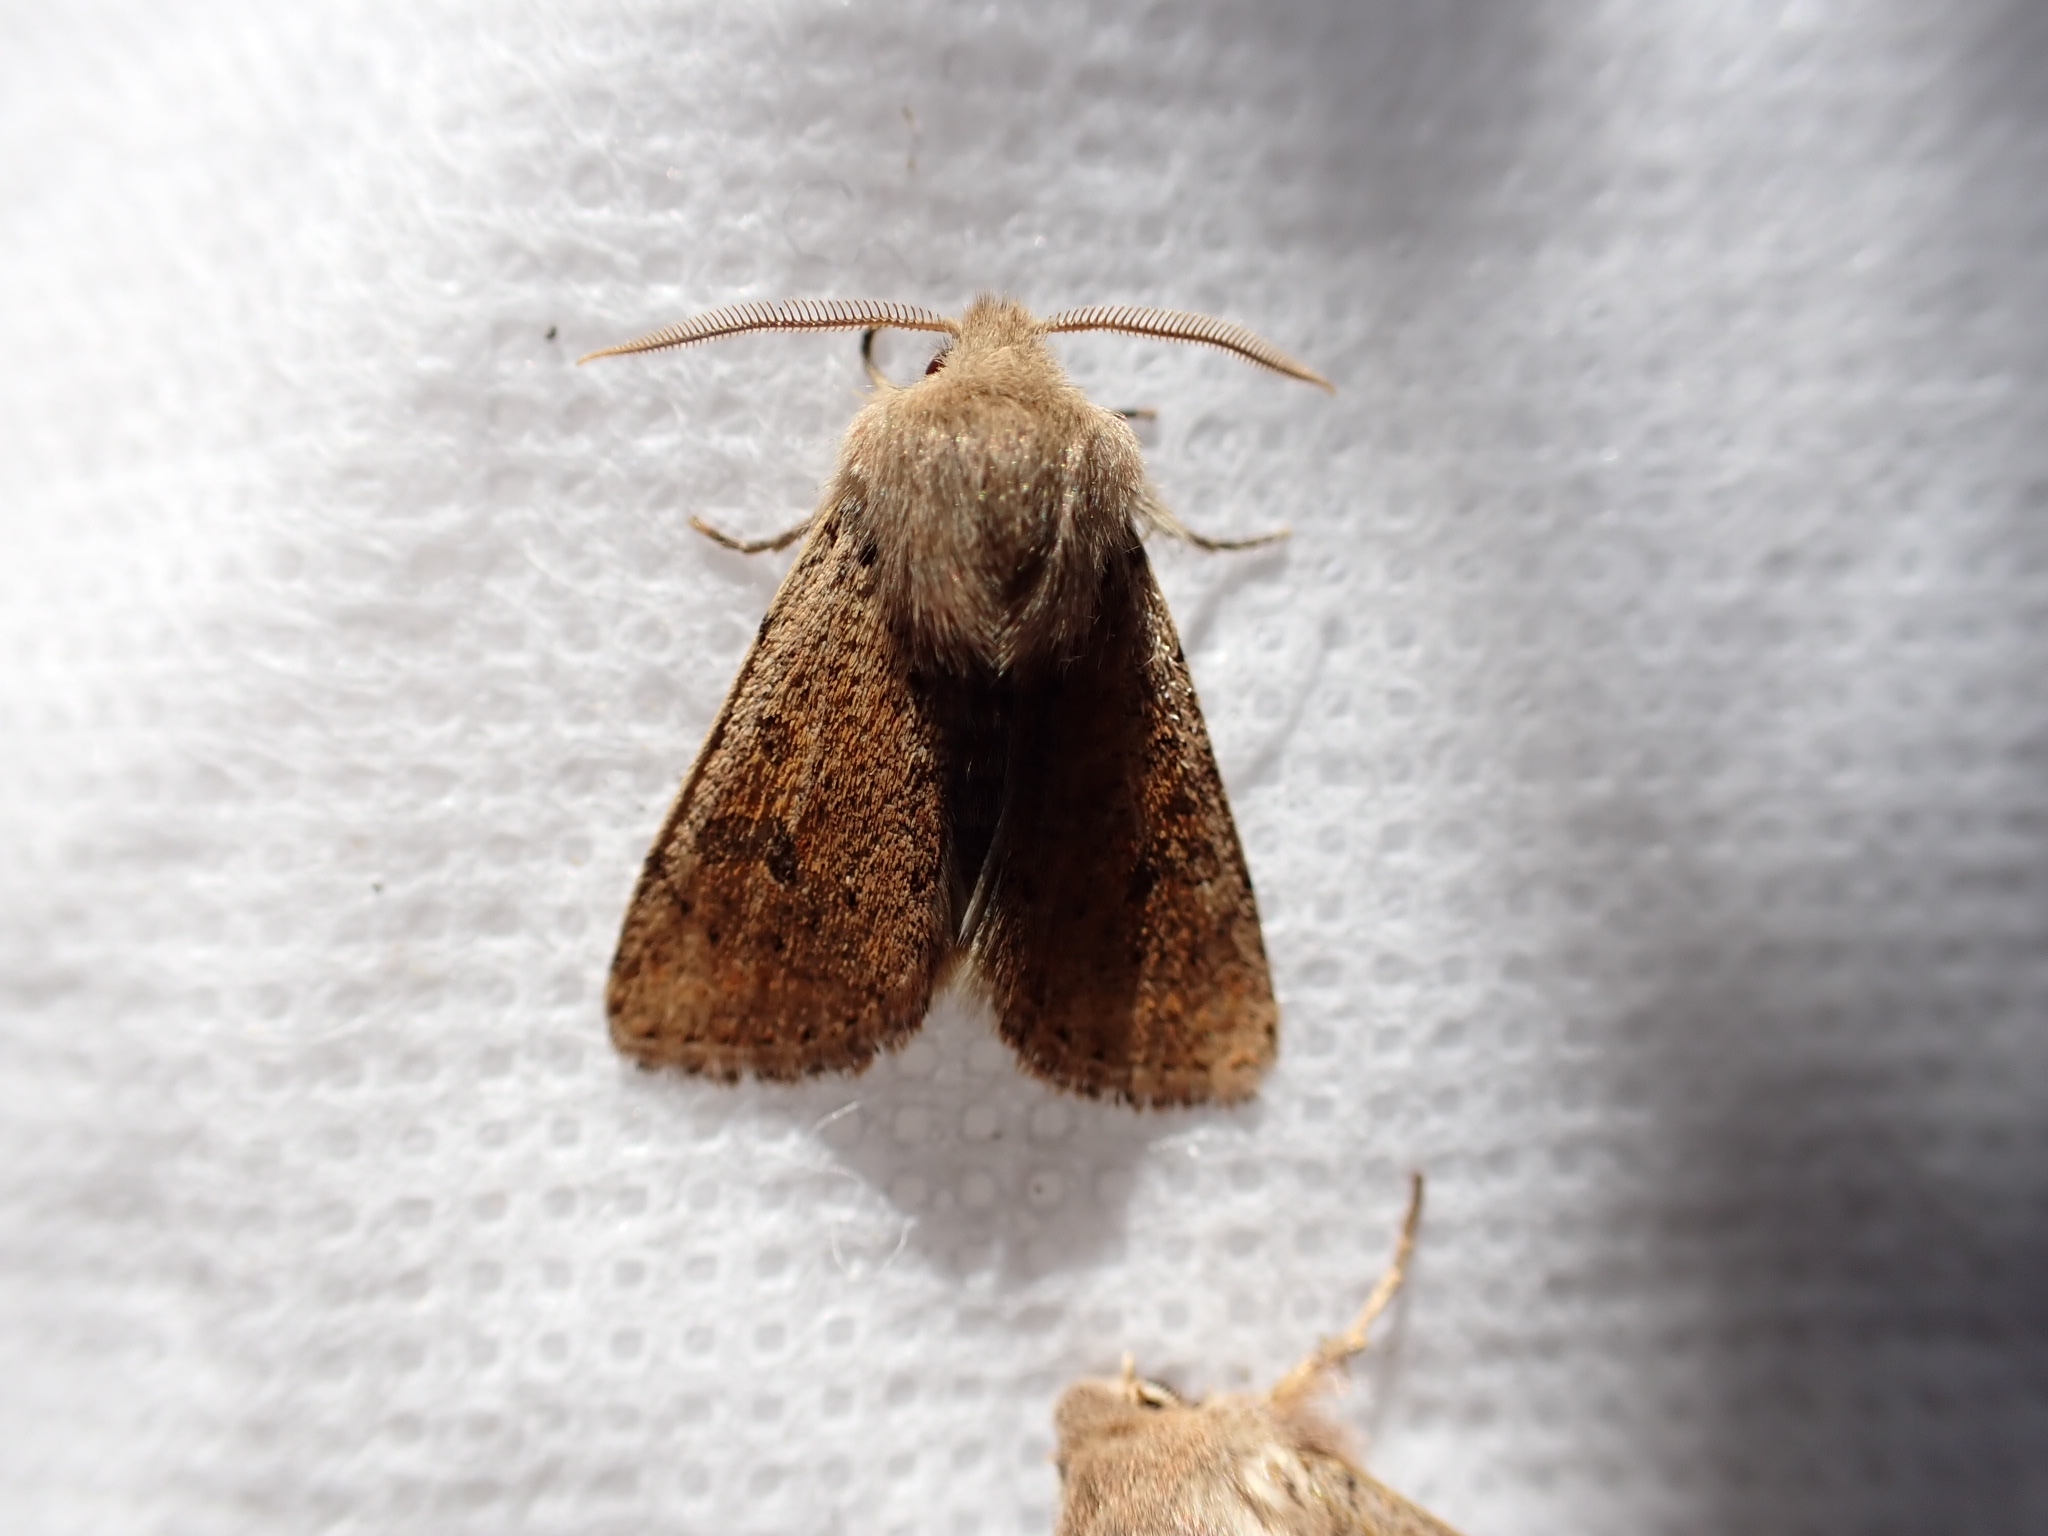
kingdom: Animalia
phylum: Arthropoda
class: Insecta
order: Lepidoptera
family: Noctuidae
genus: Orthosia
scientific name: Orthosia cruda
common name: Small quaker
